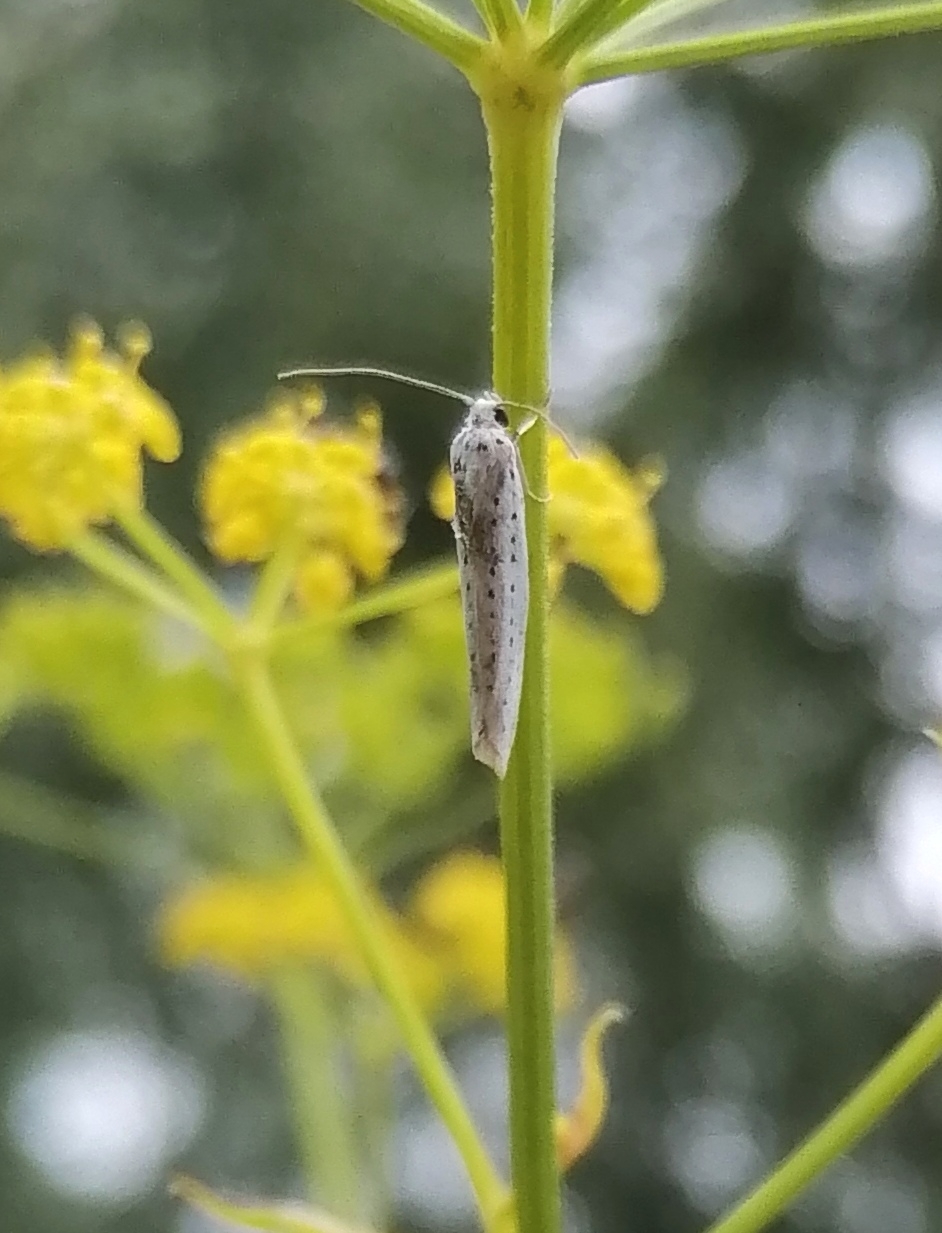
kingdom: Animalia
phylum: Arthropoda
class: Insecta
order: Lepidoptera
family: Yponomeutidae
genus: Yponomeuta
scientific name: Yponomeuta evonymella
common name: Bird-cherry ermine
